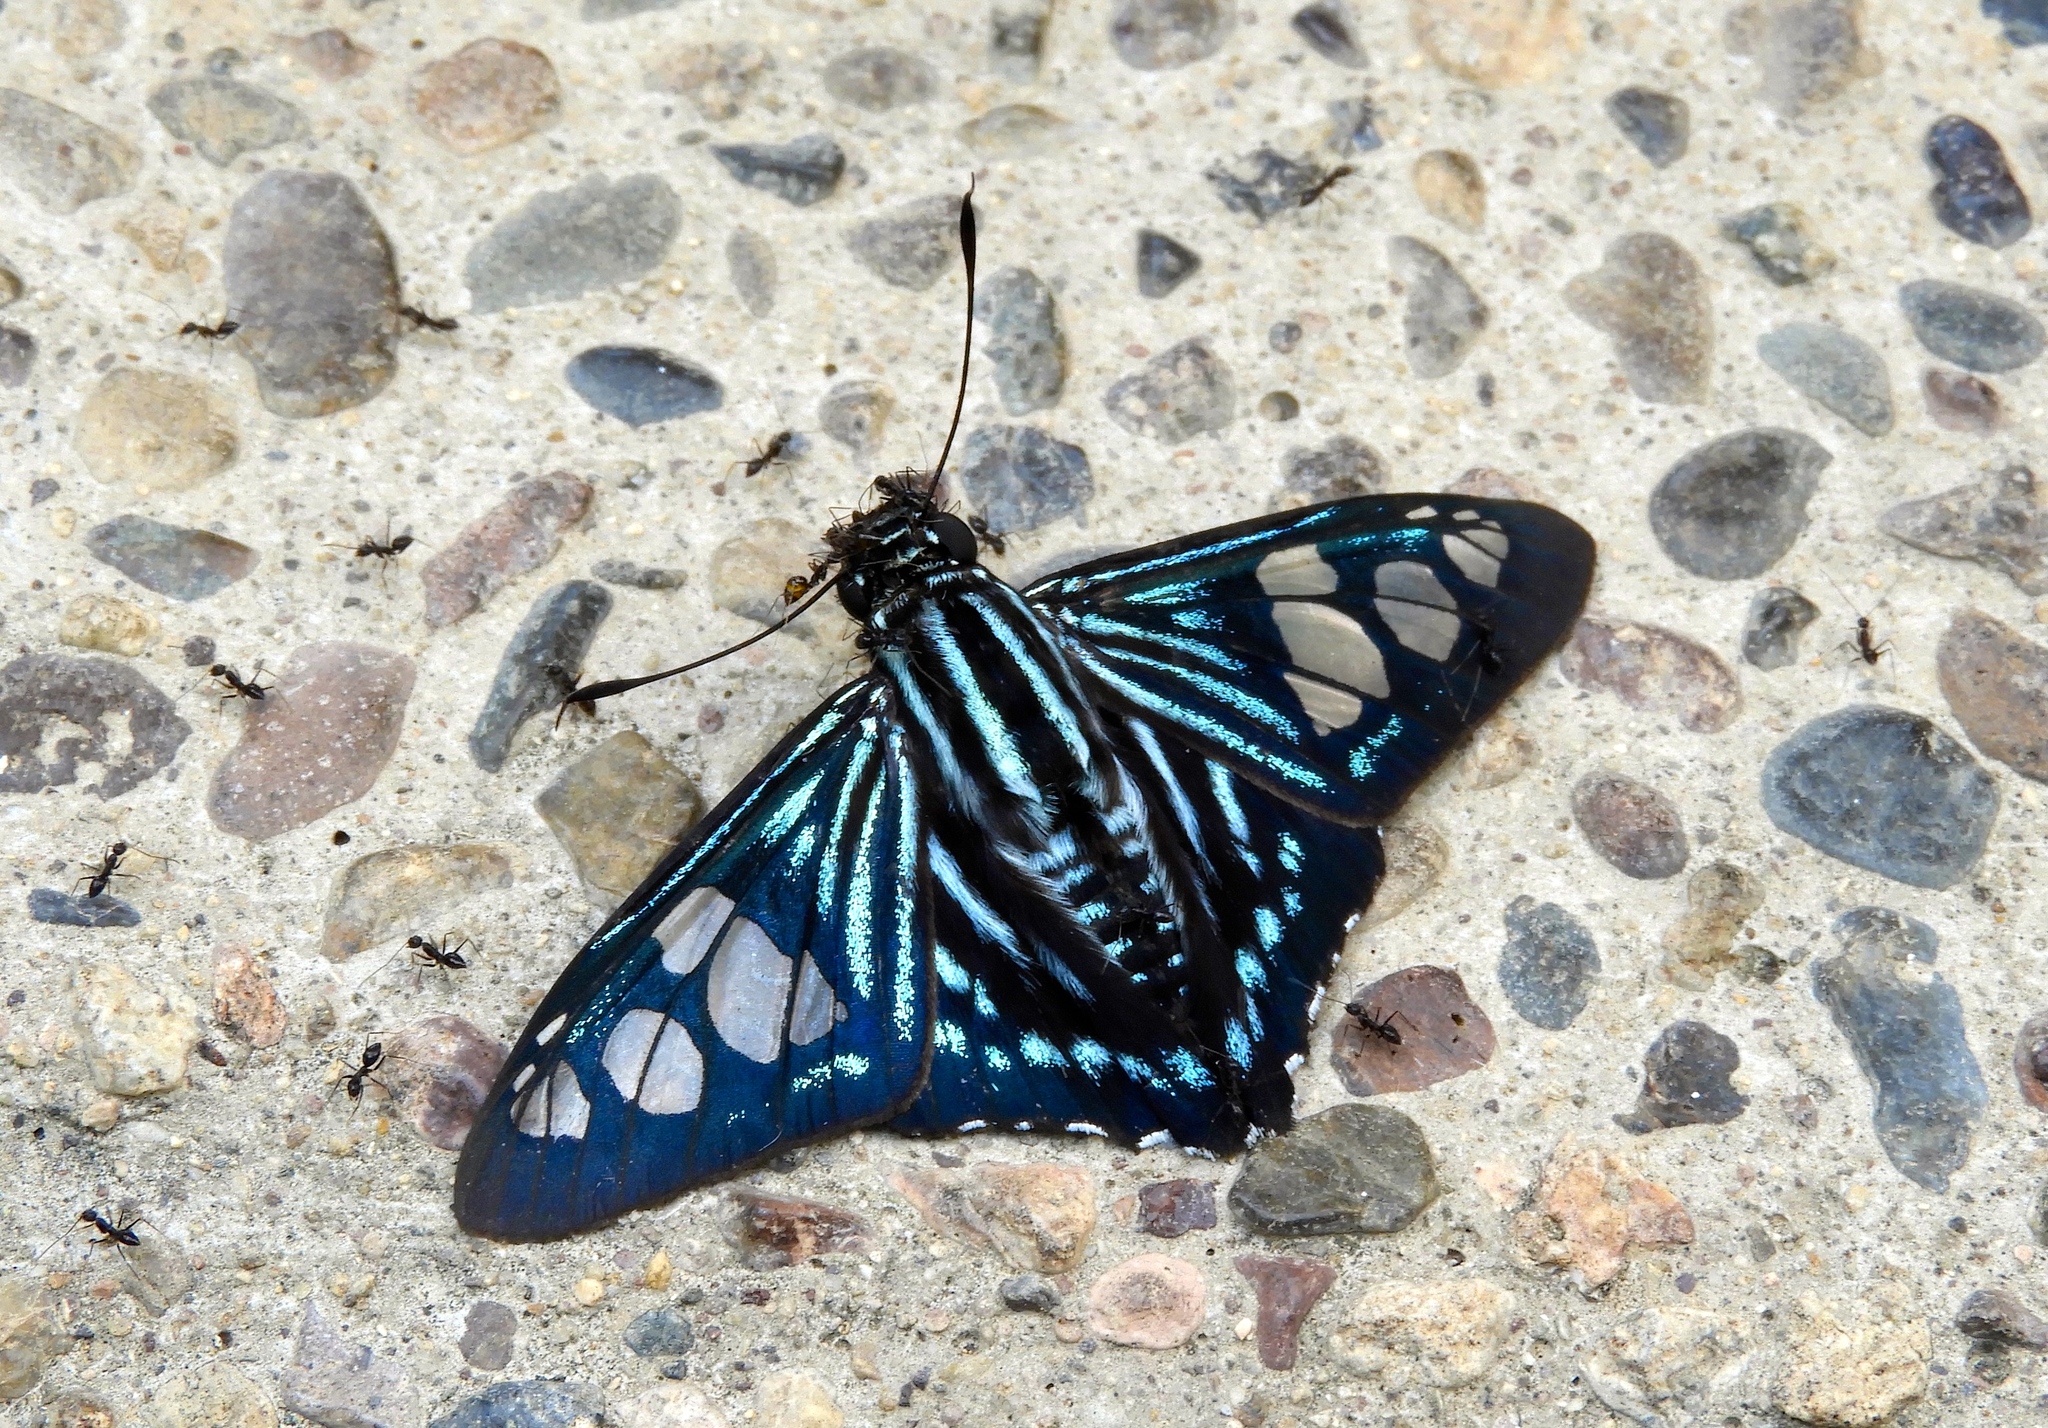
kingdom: Animalia
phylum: Arthropoda
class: Insecta
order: Lepidoptera
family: Hesperiidae
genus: Phocides
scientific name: Phocides pigmalion
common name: Mangrove skipper
